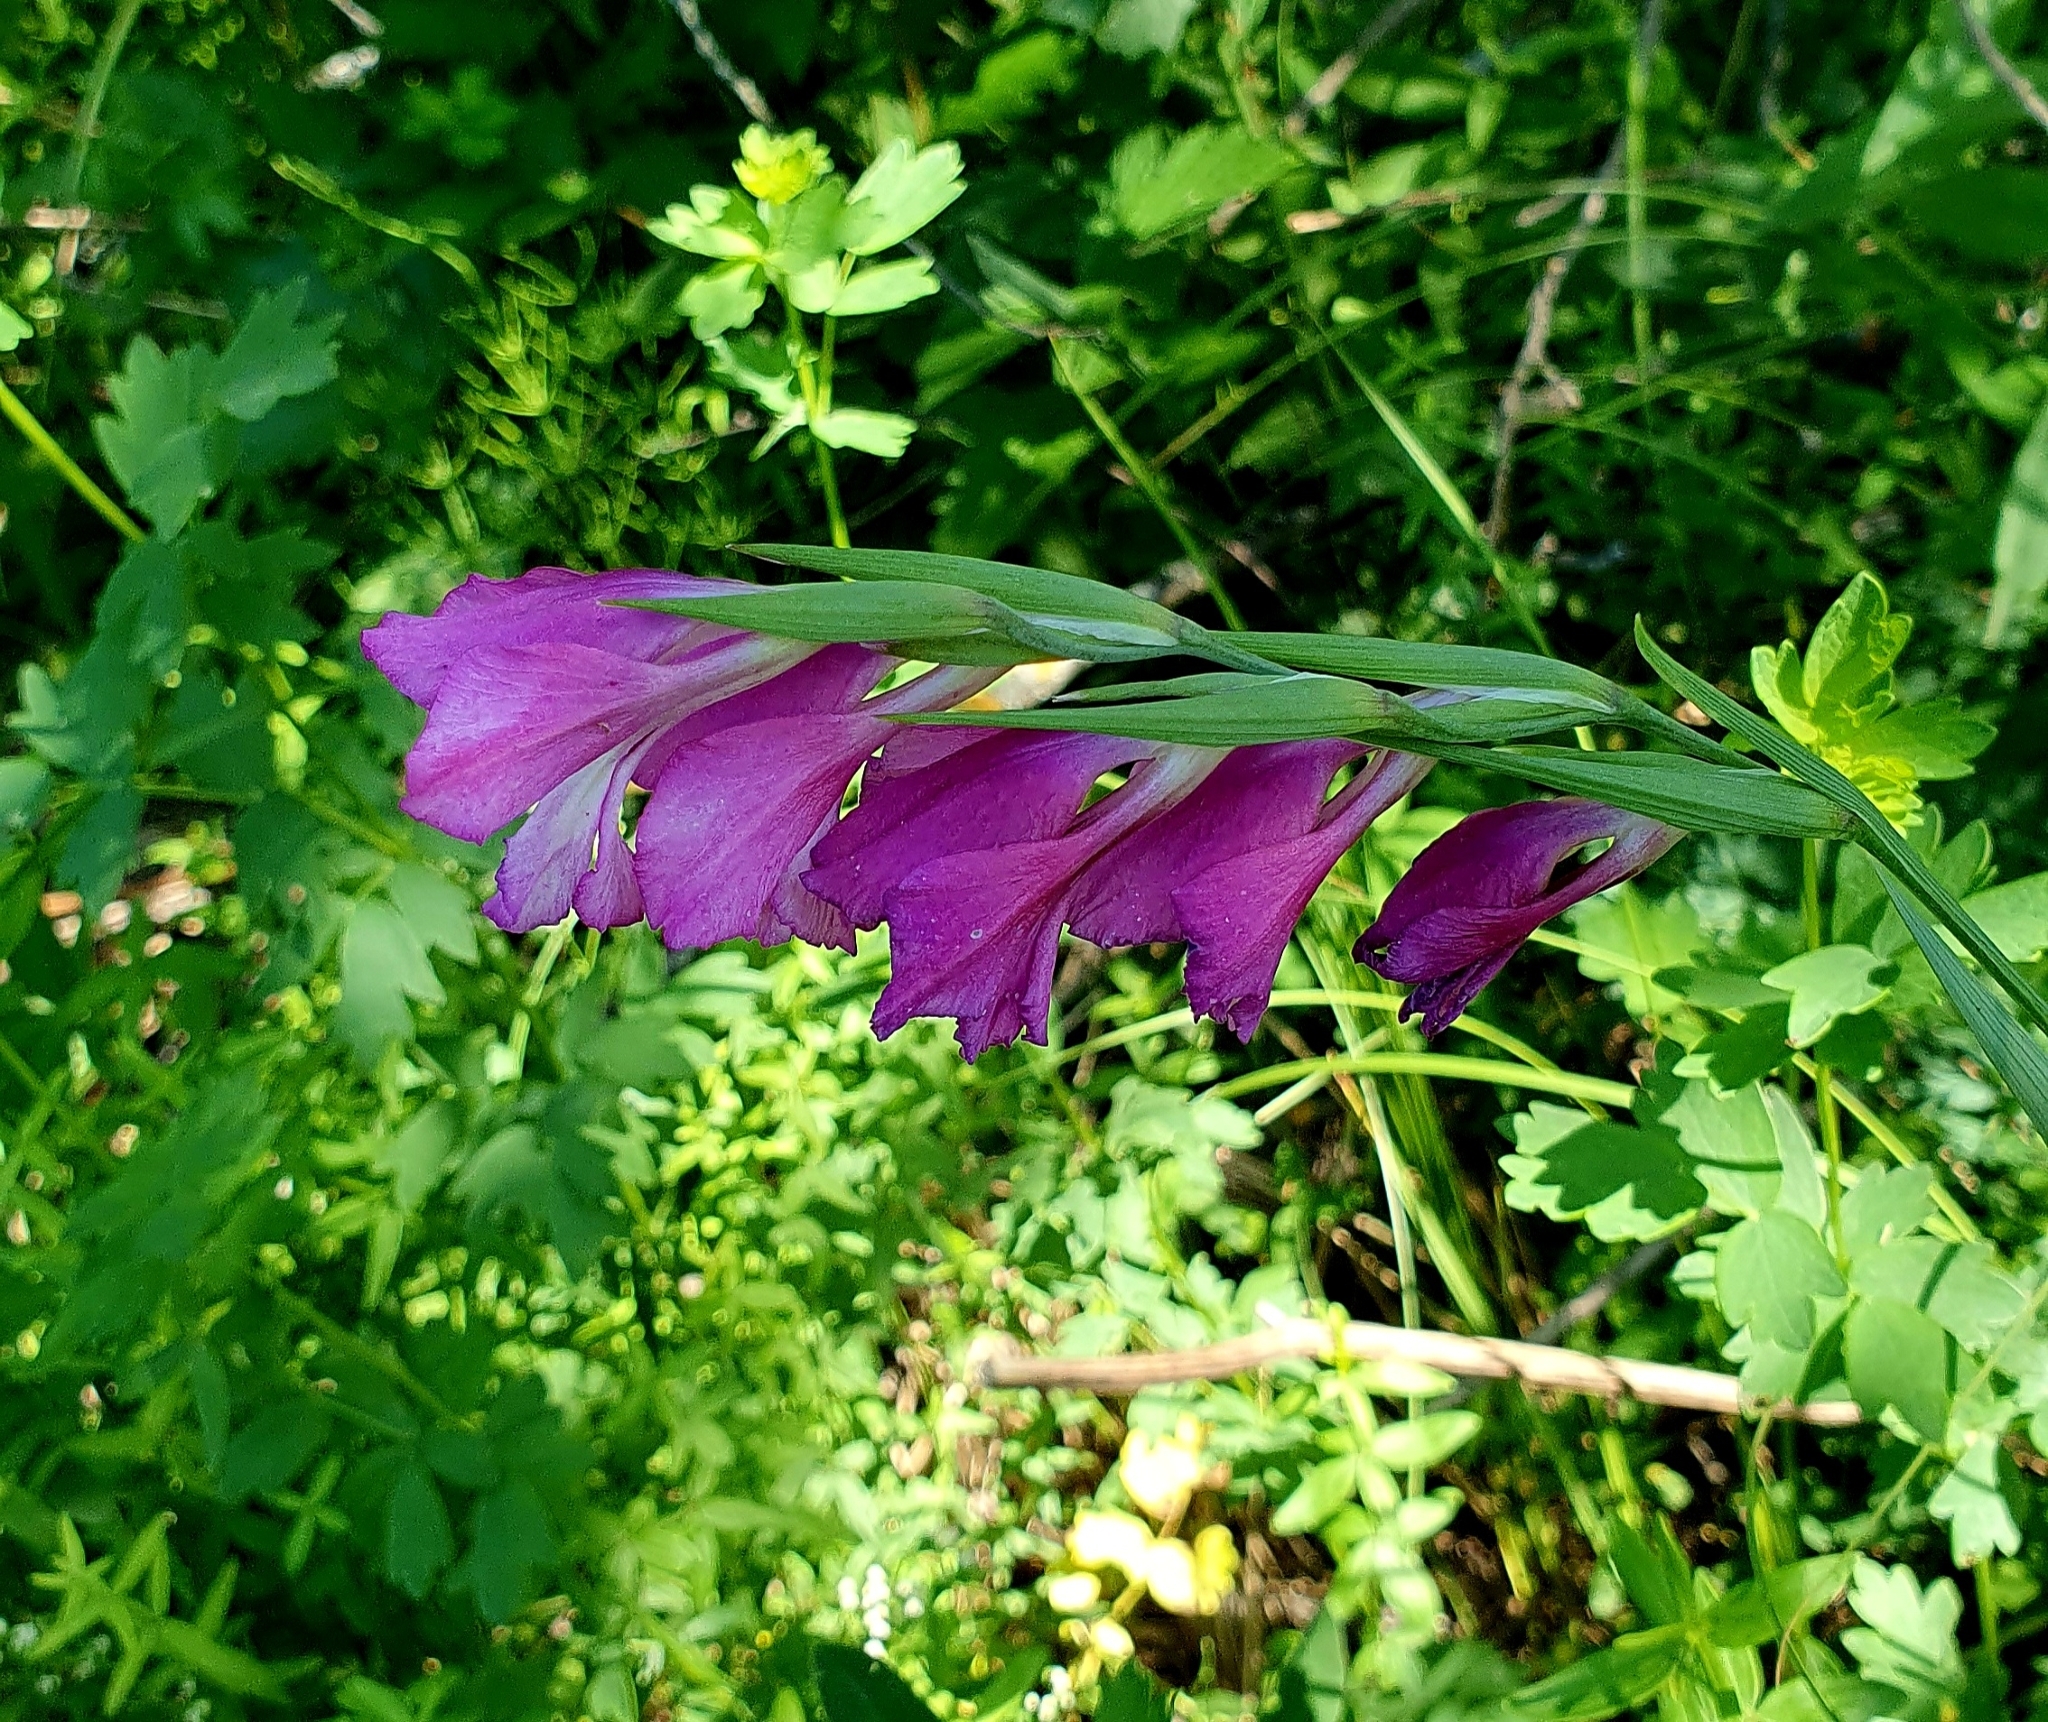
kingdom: Plantae
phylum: Tracheophyta
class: Liliopsida
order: Asparagales
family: Iridaceae
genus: Gladiolus
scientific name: Gladiolus tenuis
